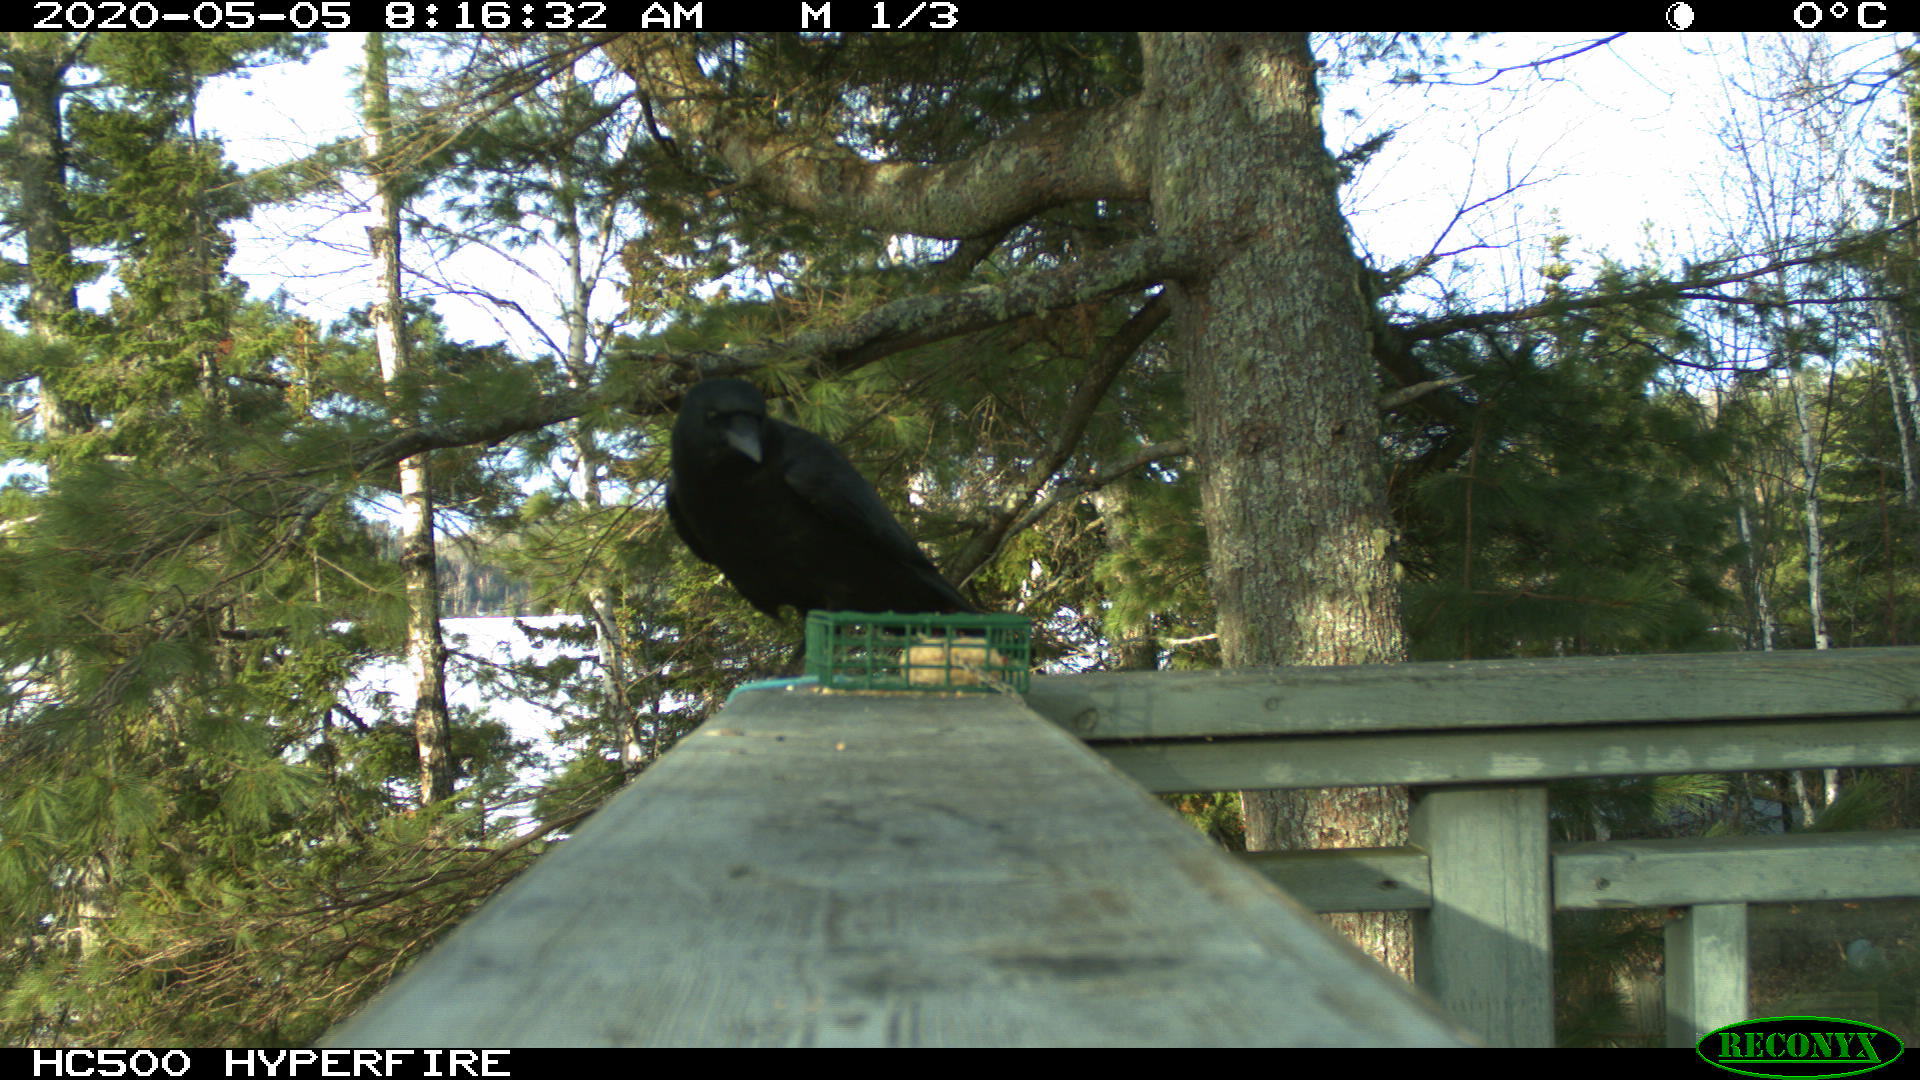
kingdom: Animalia
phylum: Chordata
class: Aves
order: Passeriformes
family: Corvidae
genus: Corvus
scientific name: Corvus brachyrhynchos
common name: American crow
